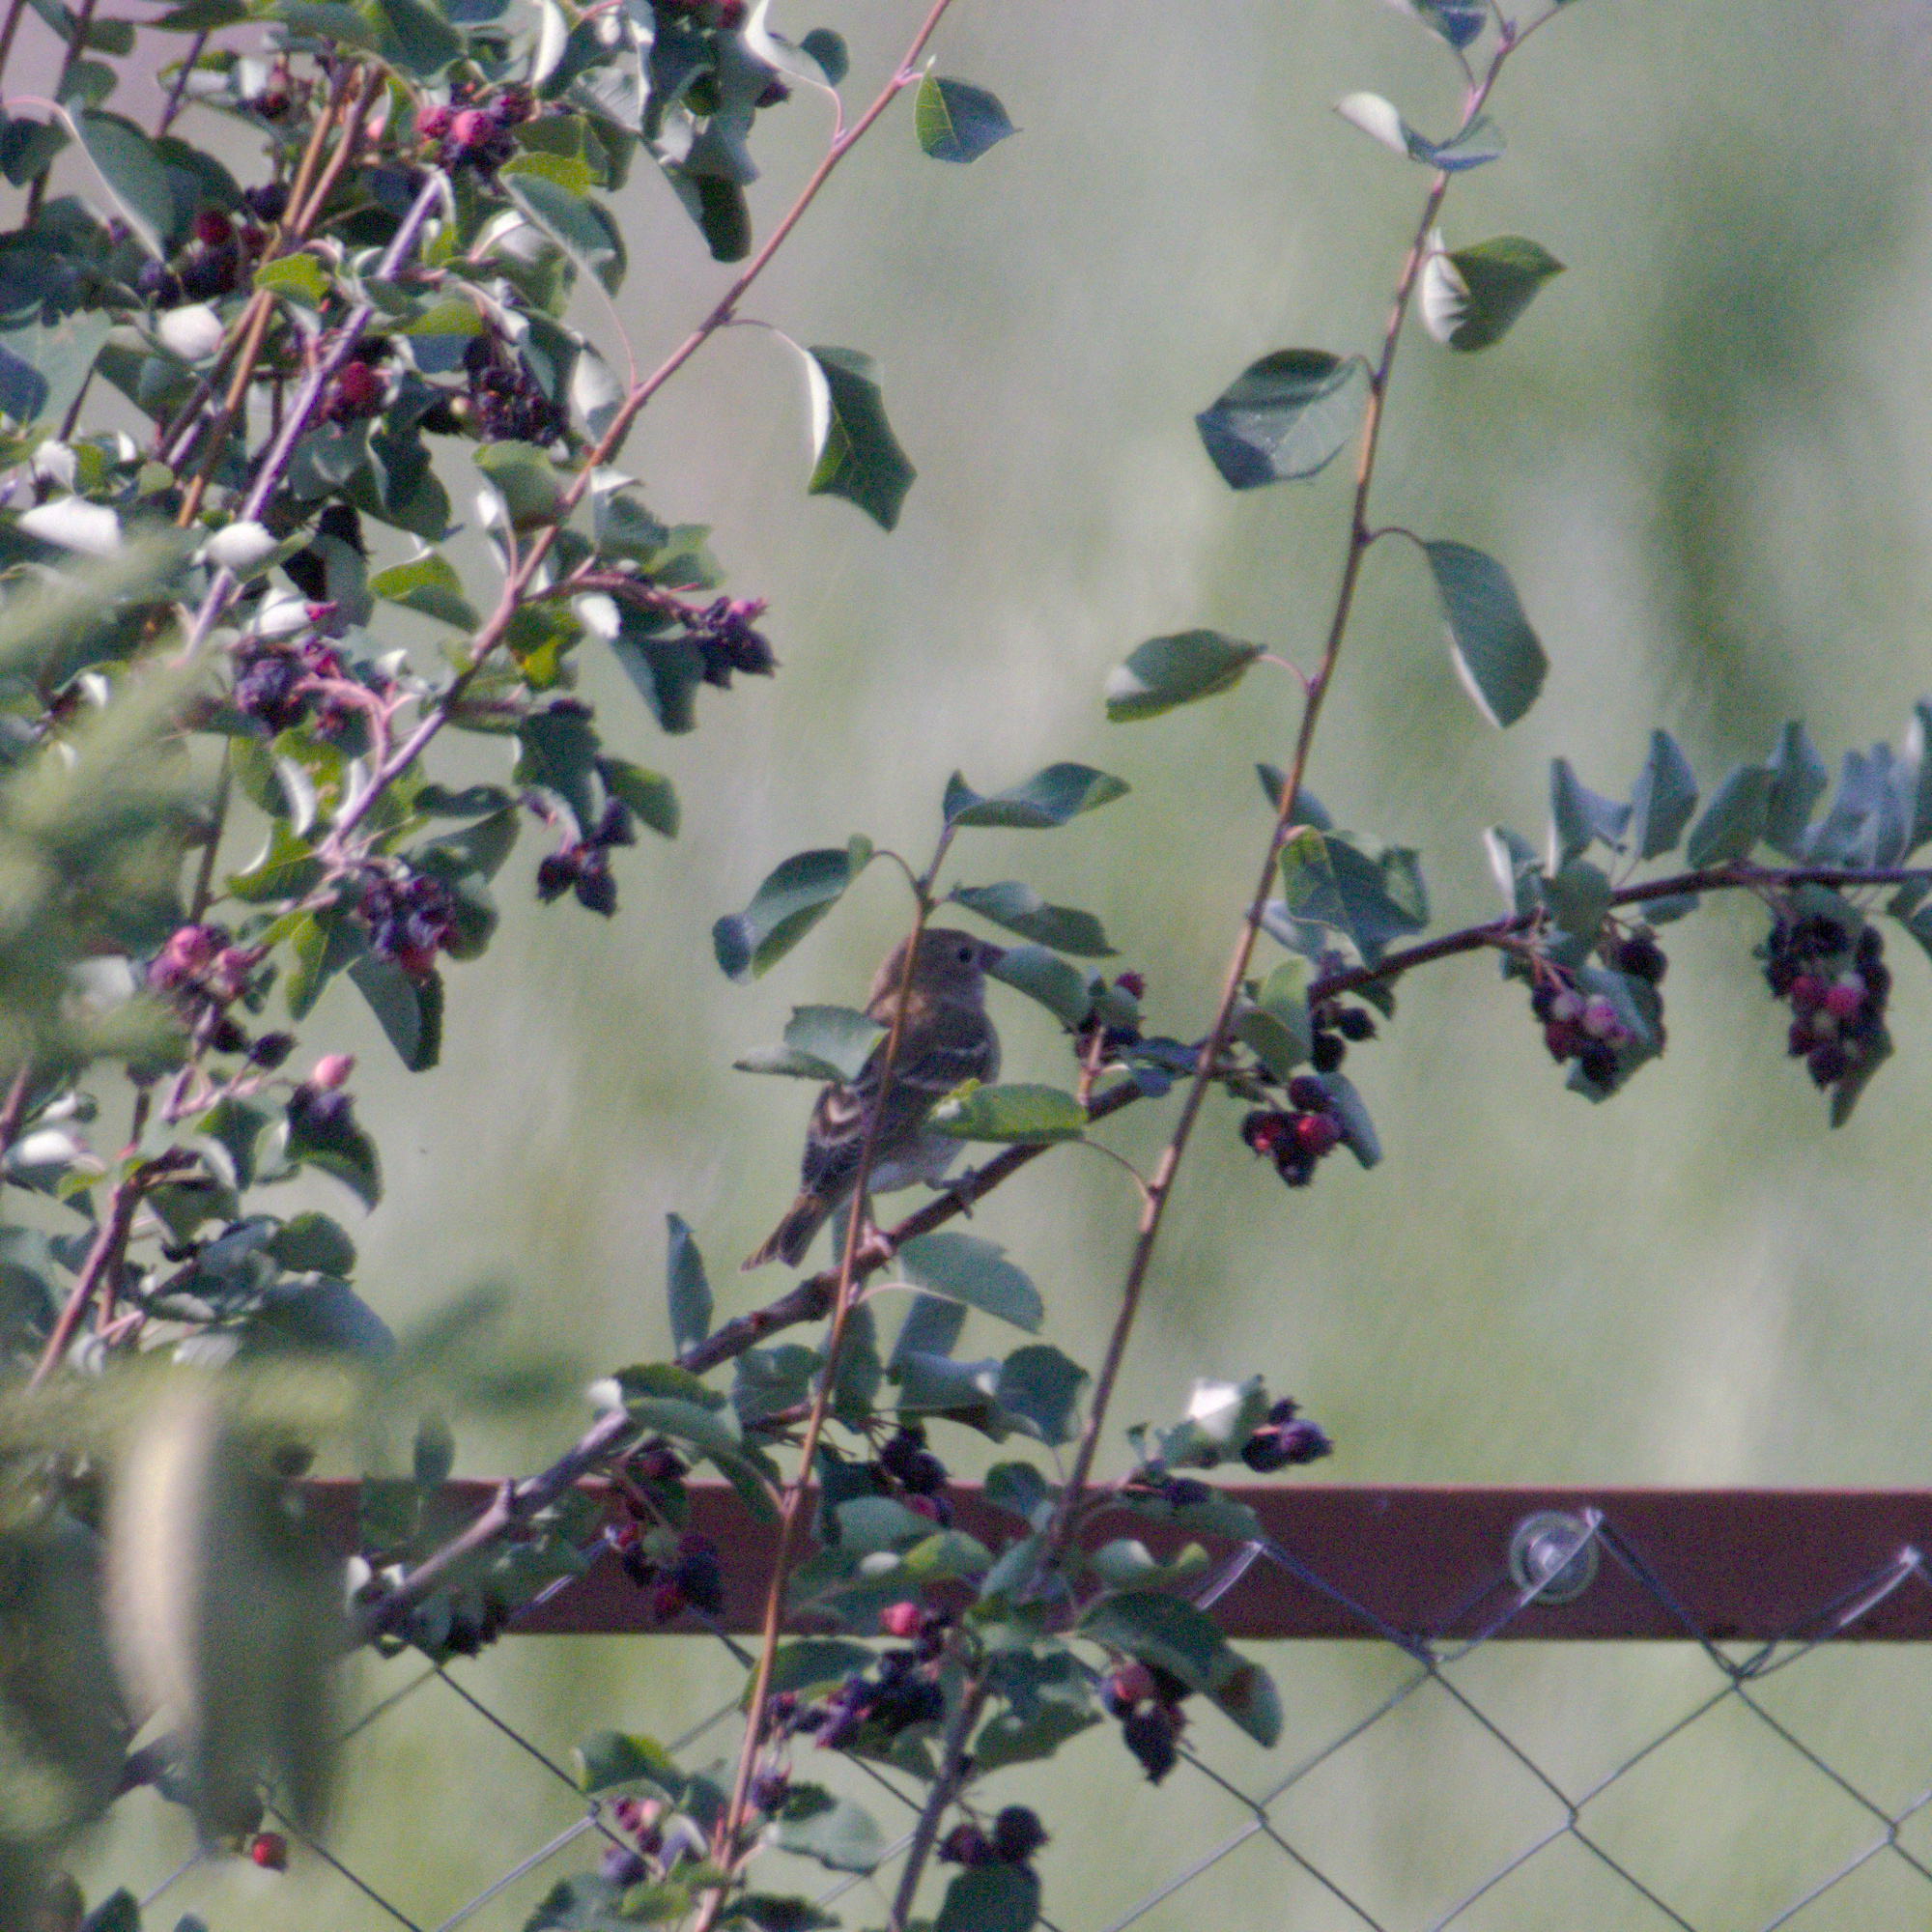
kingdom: Animalia
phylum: Chordata
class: Aves
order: Passeriformes
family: Fringillidae
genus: Carpodacus
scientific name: Carpodacus erythrinus
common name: Common rosefinch
